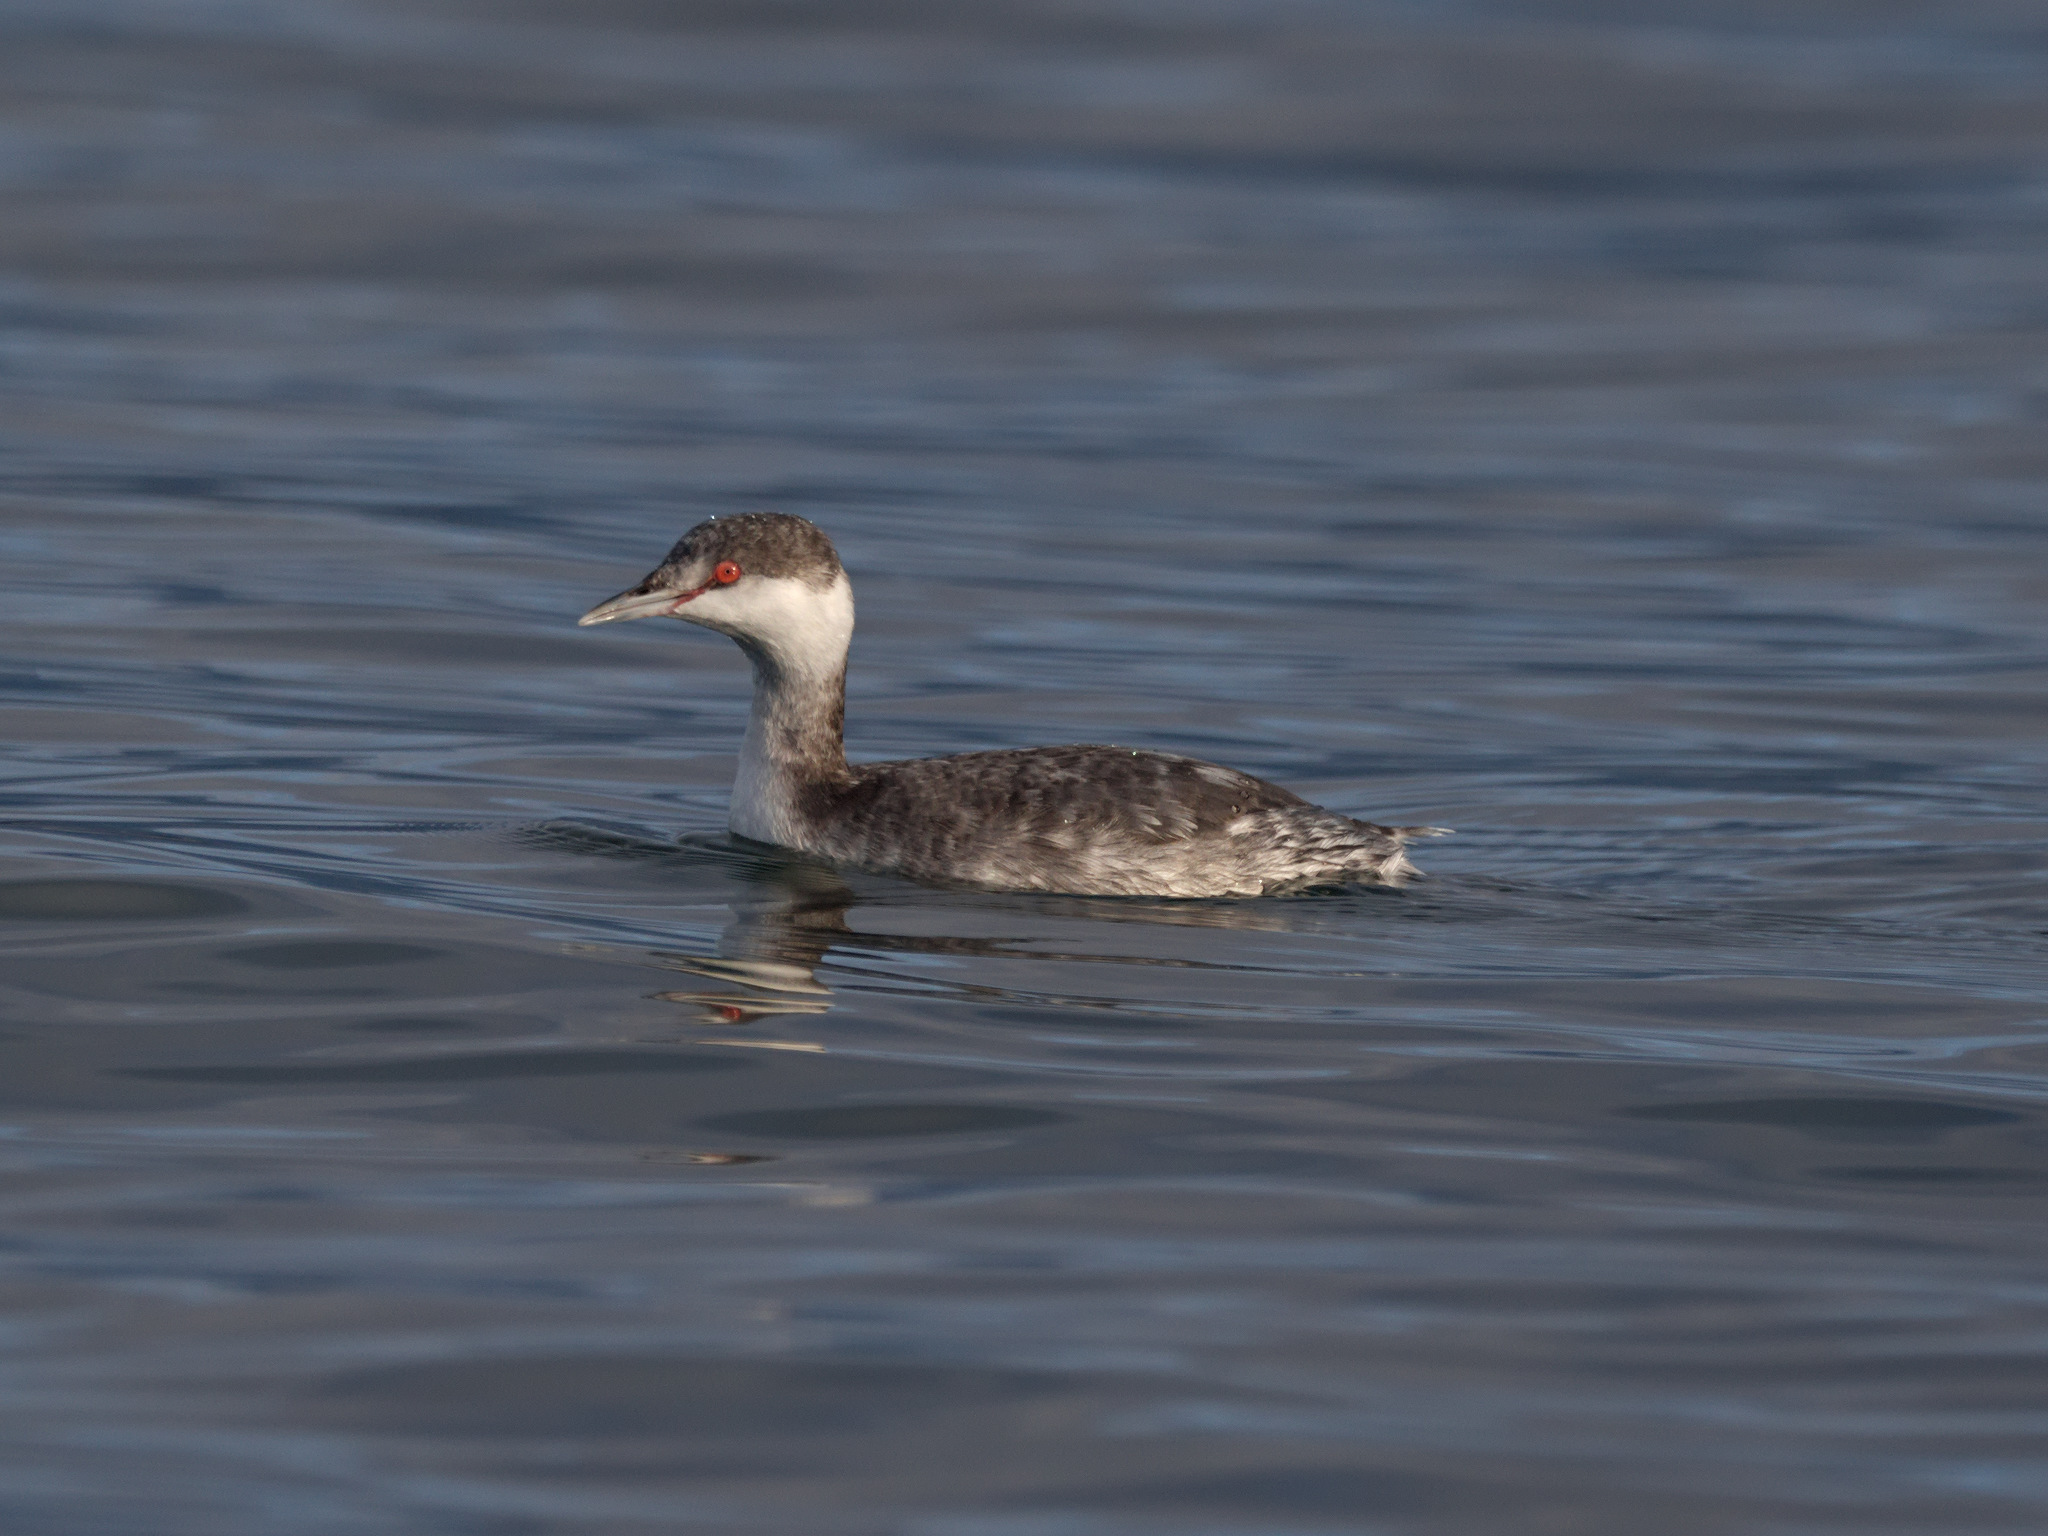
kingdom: Animalia
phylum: Chordata
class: Aves
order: Podicipediformes
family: Podicipedidae
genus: Podiceps
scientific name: Podiceps auritus
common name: Horned grebe
